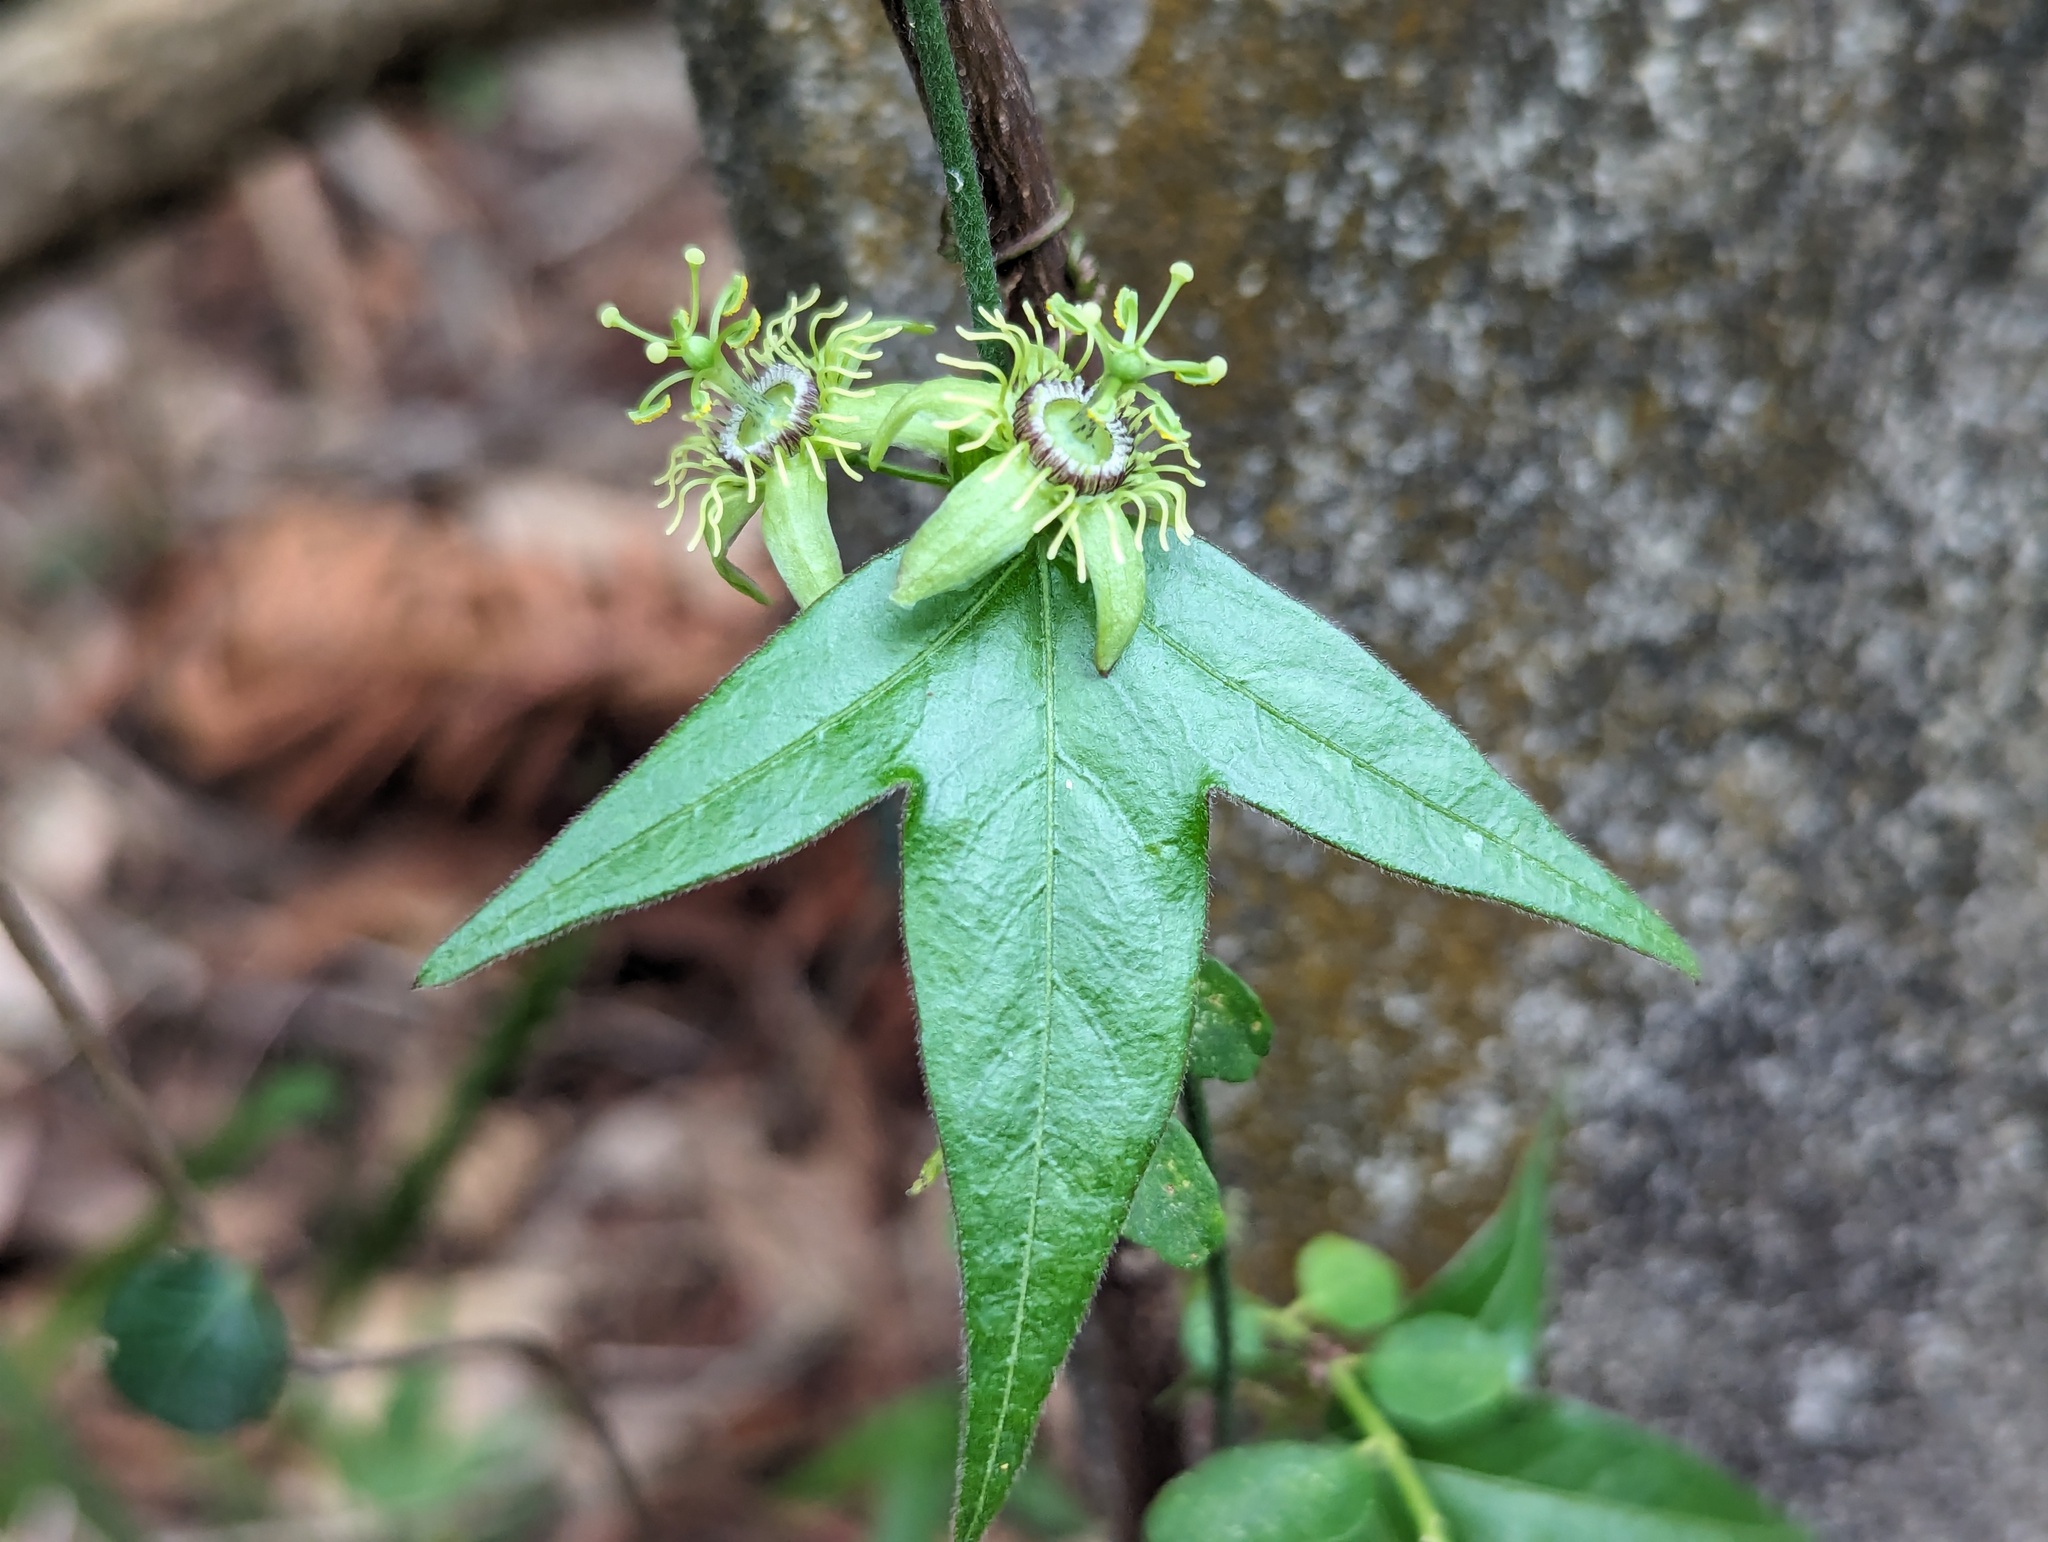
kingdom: Plantae
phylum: Tracheophyta
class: Magnoliopsida
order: Malpighiales
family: Passifloraceae
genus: Passiflora
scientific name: Passiflora suberosa
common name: Wild passionfruit
